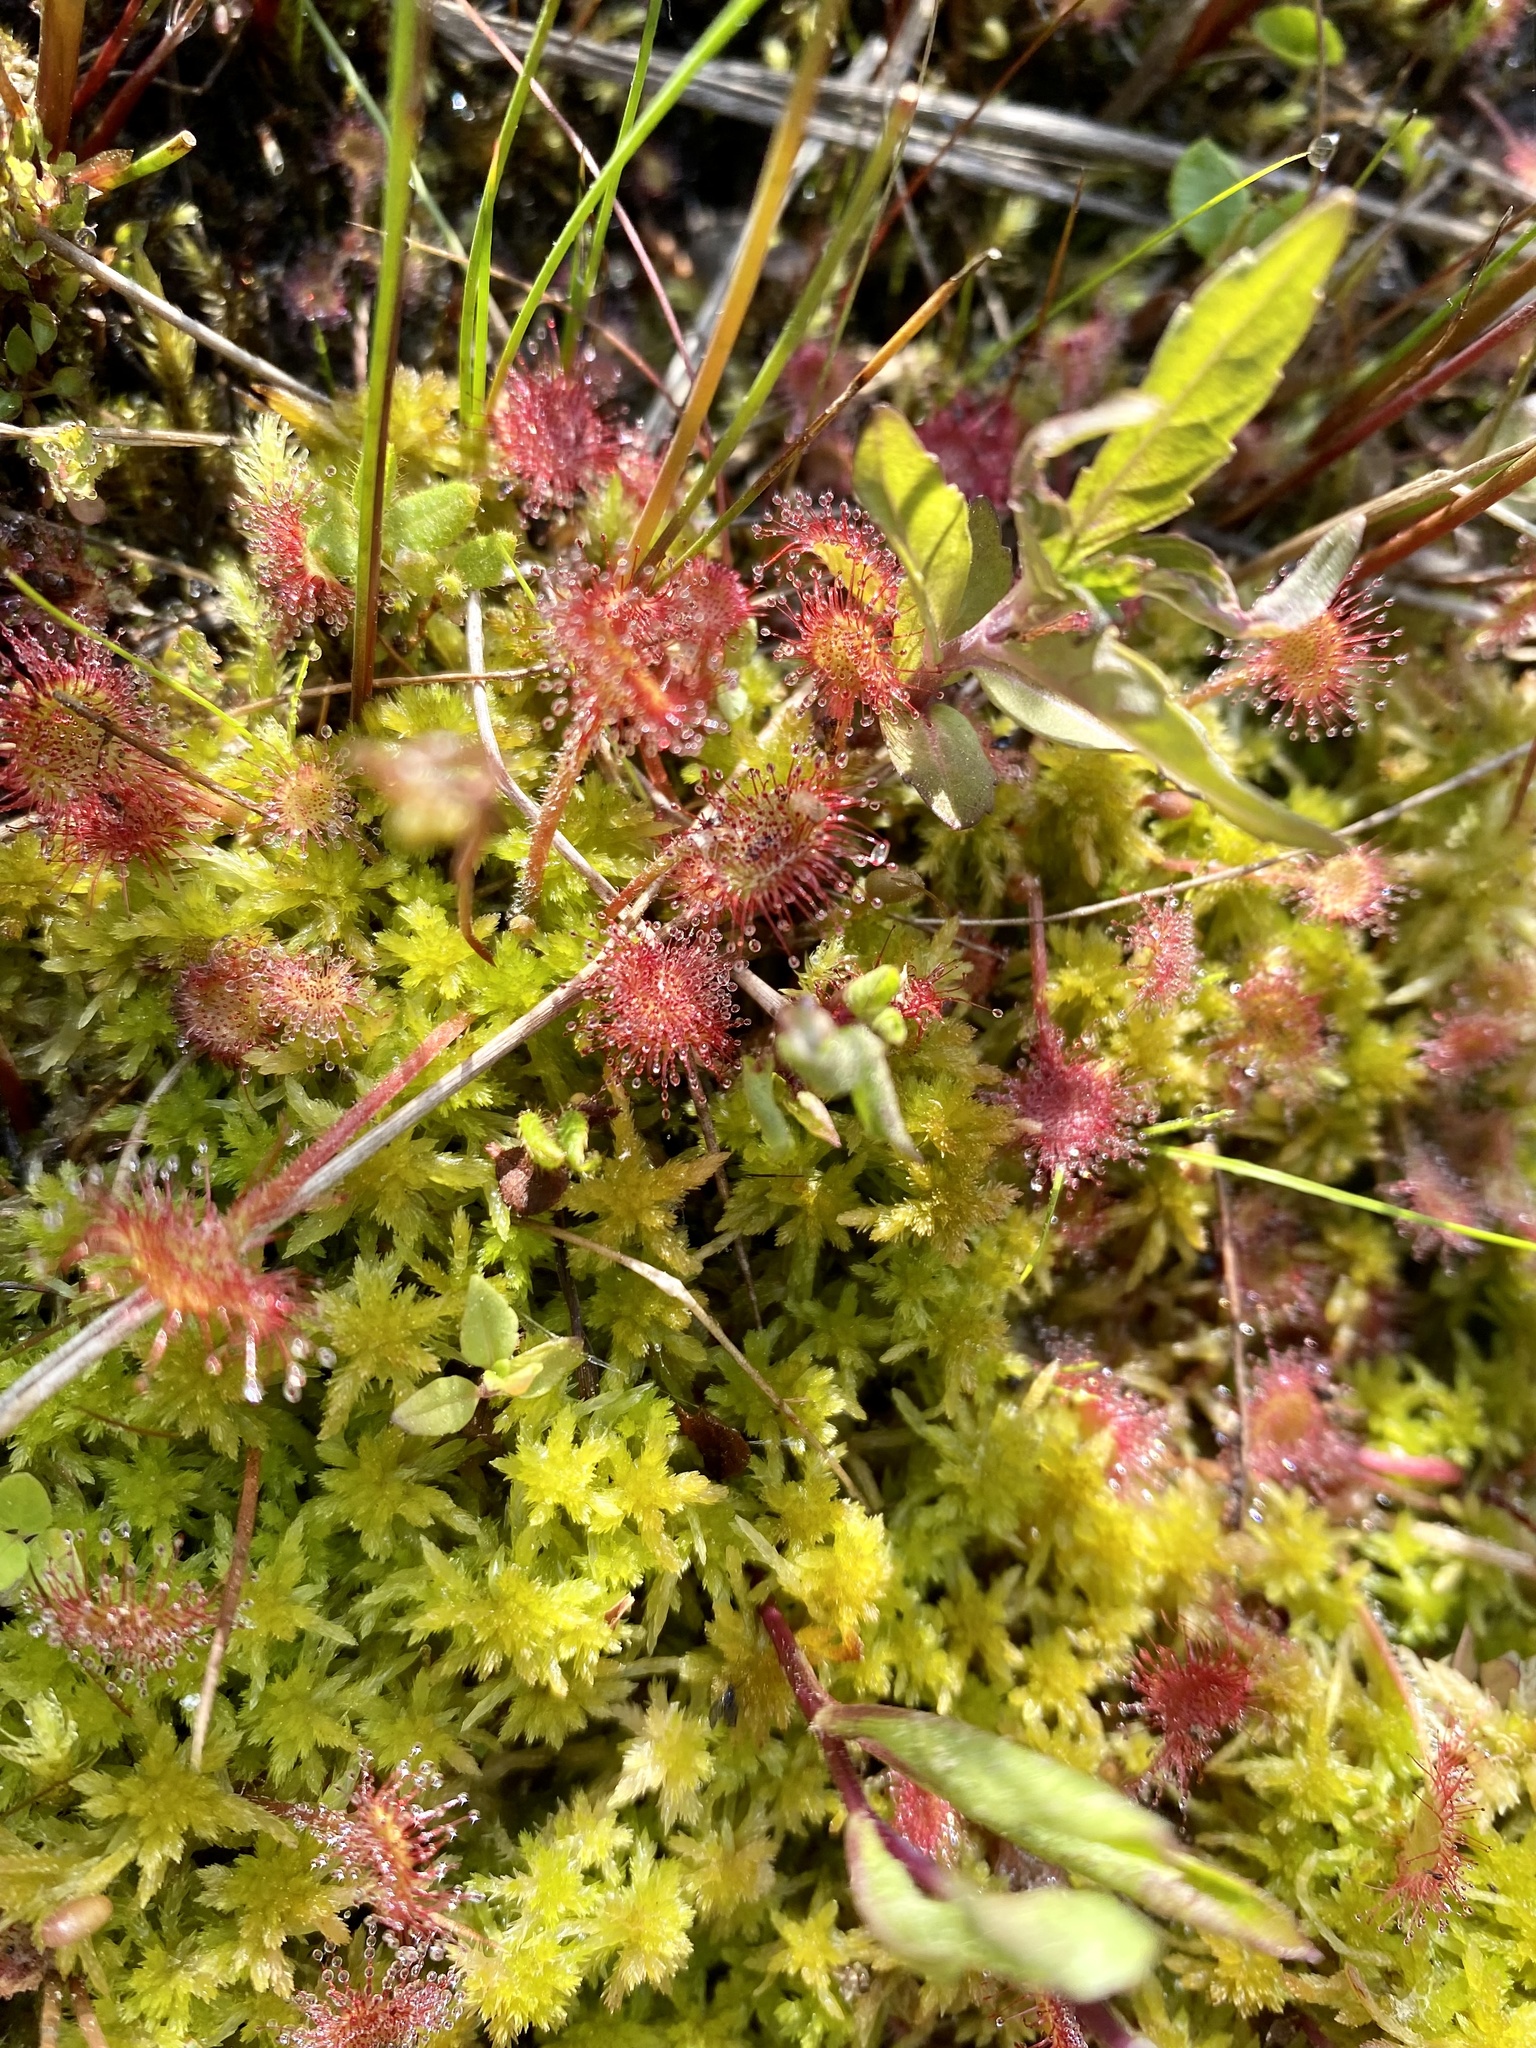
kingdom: Plantae
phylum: Tracheophyta
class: Magnoliopsida
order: Caryophyllales
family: Droseraceae
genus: Drosera
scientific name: Drosera rotundifolia
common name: Round-leaved sundew
